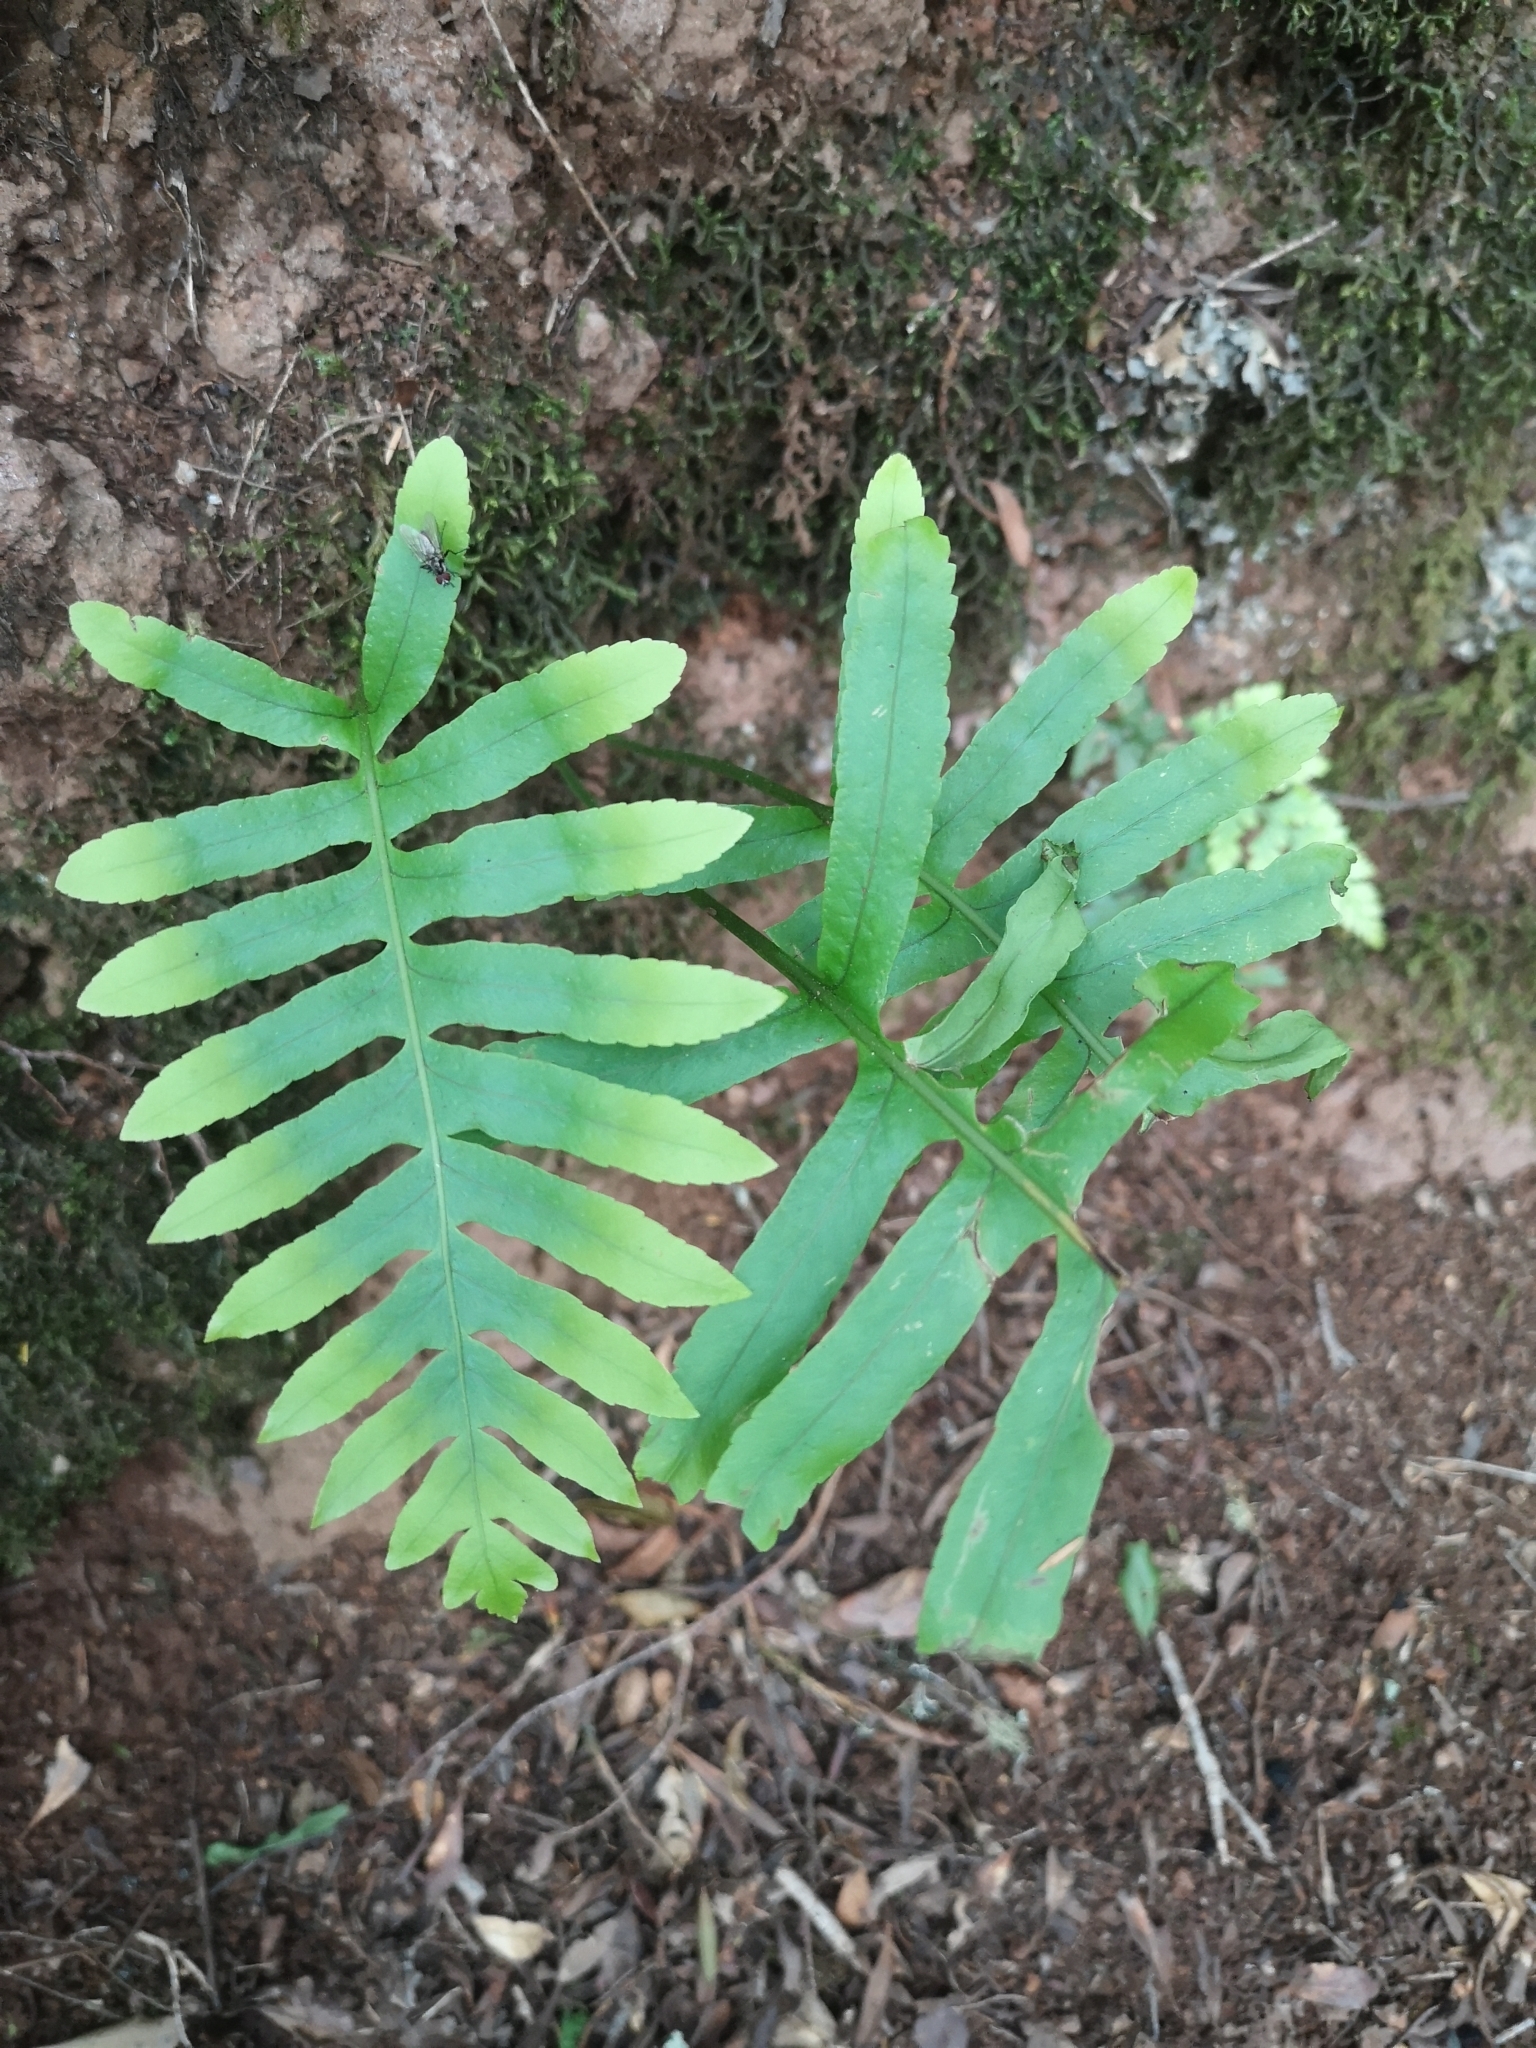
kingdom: Plantae
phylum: Tracheophyta
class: Polypodiopsida
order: Polypodiales
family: Polypodiaceae
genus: Polypodium
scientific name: Polypodium macaronesicum
